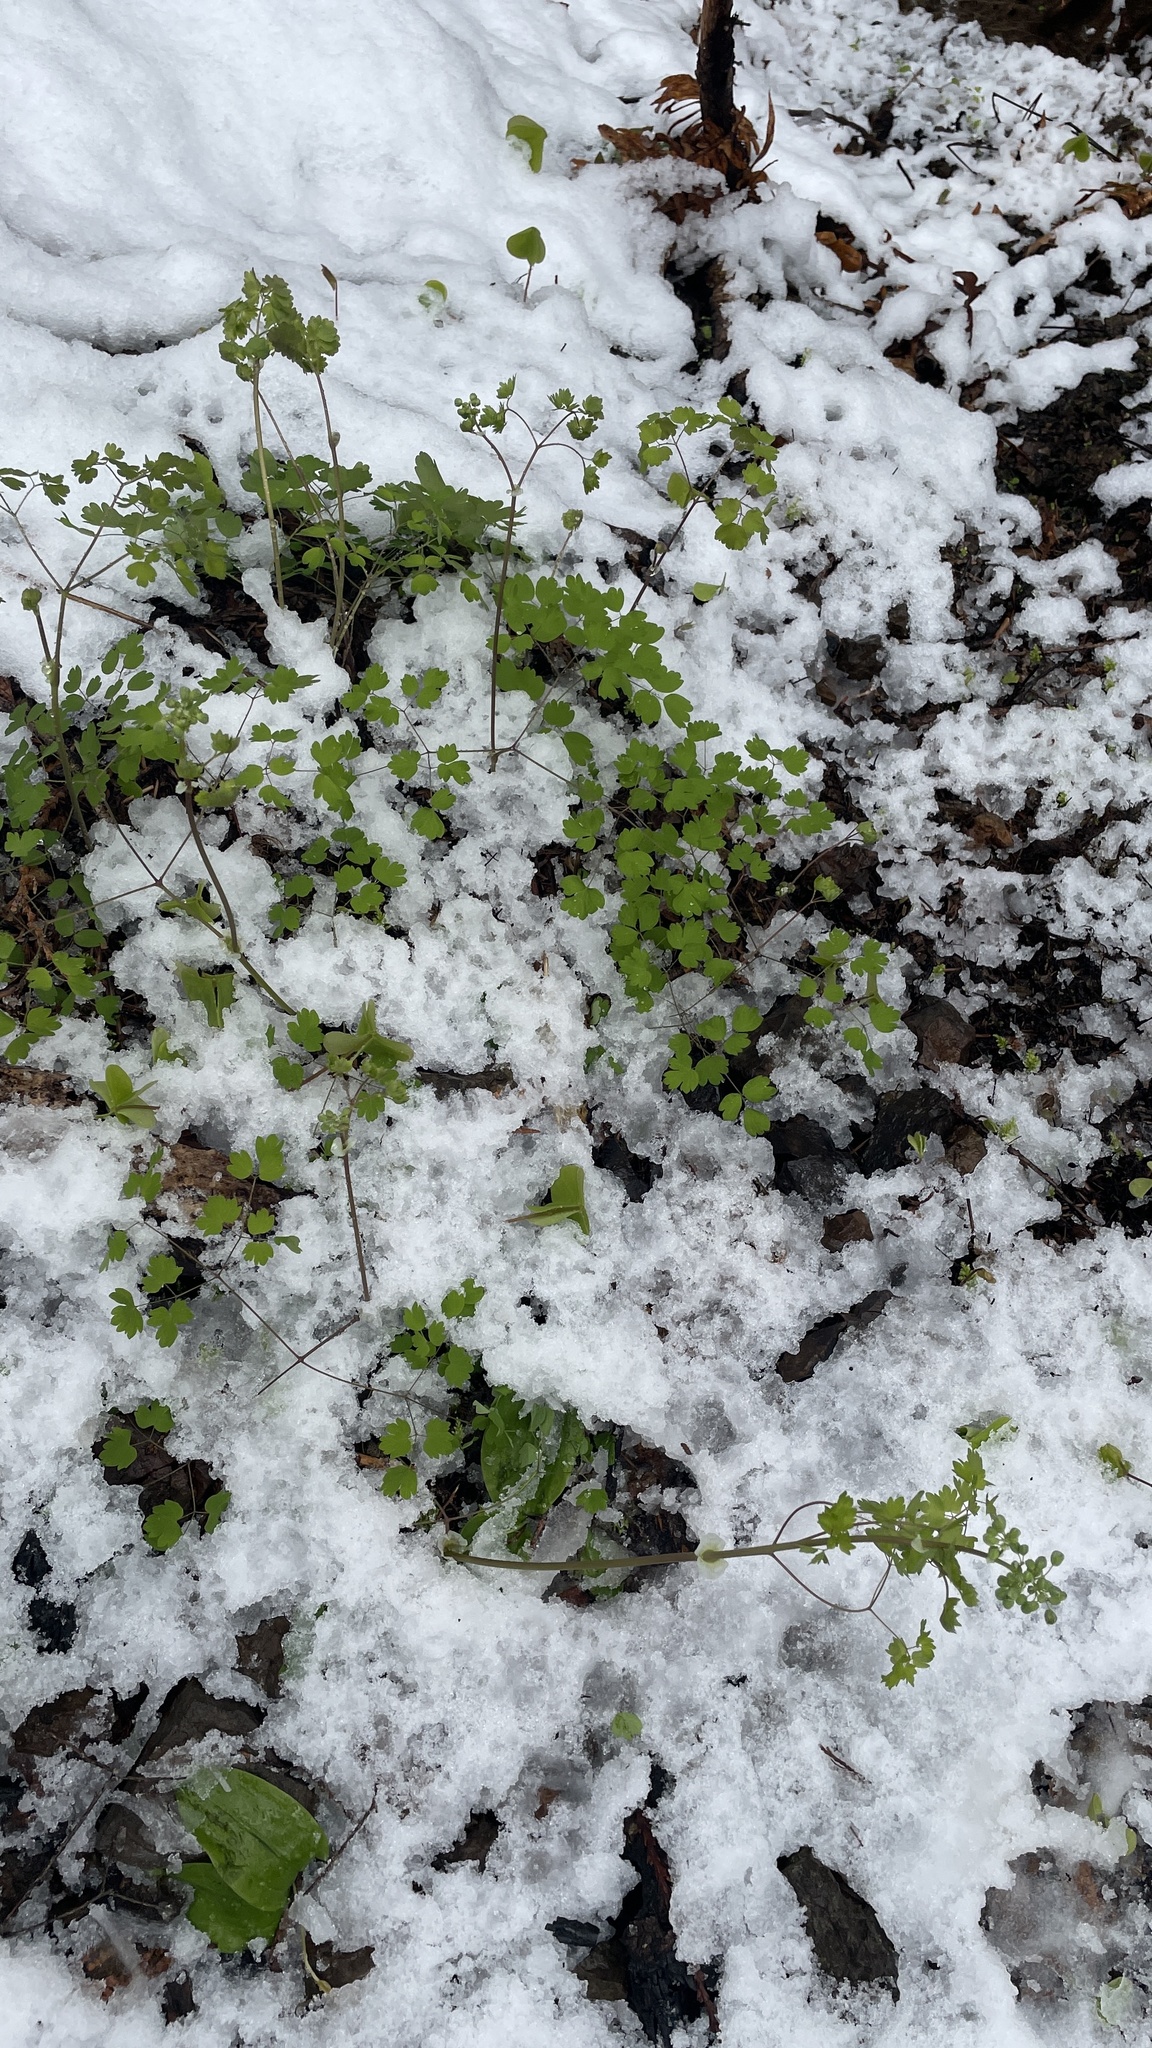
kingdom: Plantae
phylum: Tracheophyta
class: Magnoliopsida
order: Ranunculales
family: Ranunculaceae
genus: Thalictrum
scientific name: Thalictrum occidentale
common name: Western meadow-rue
